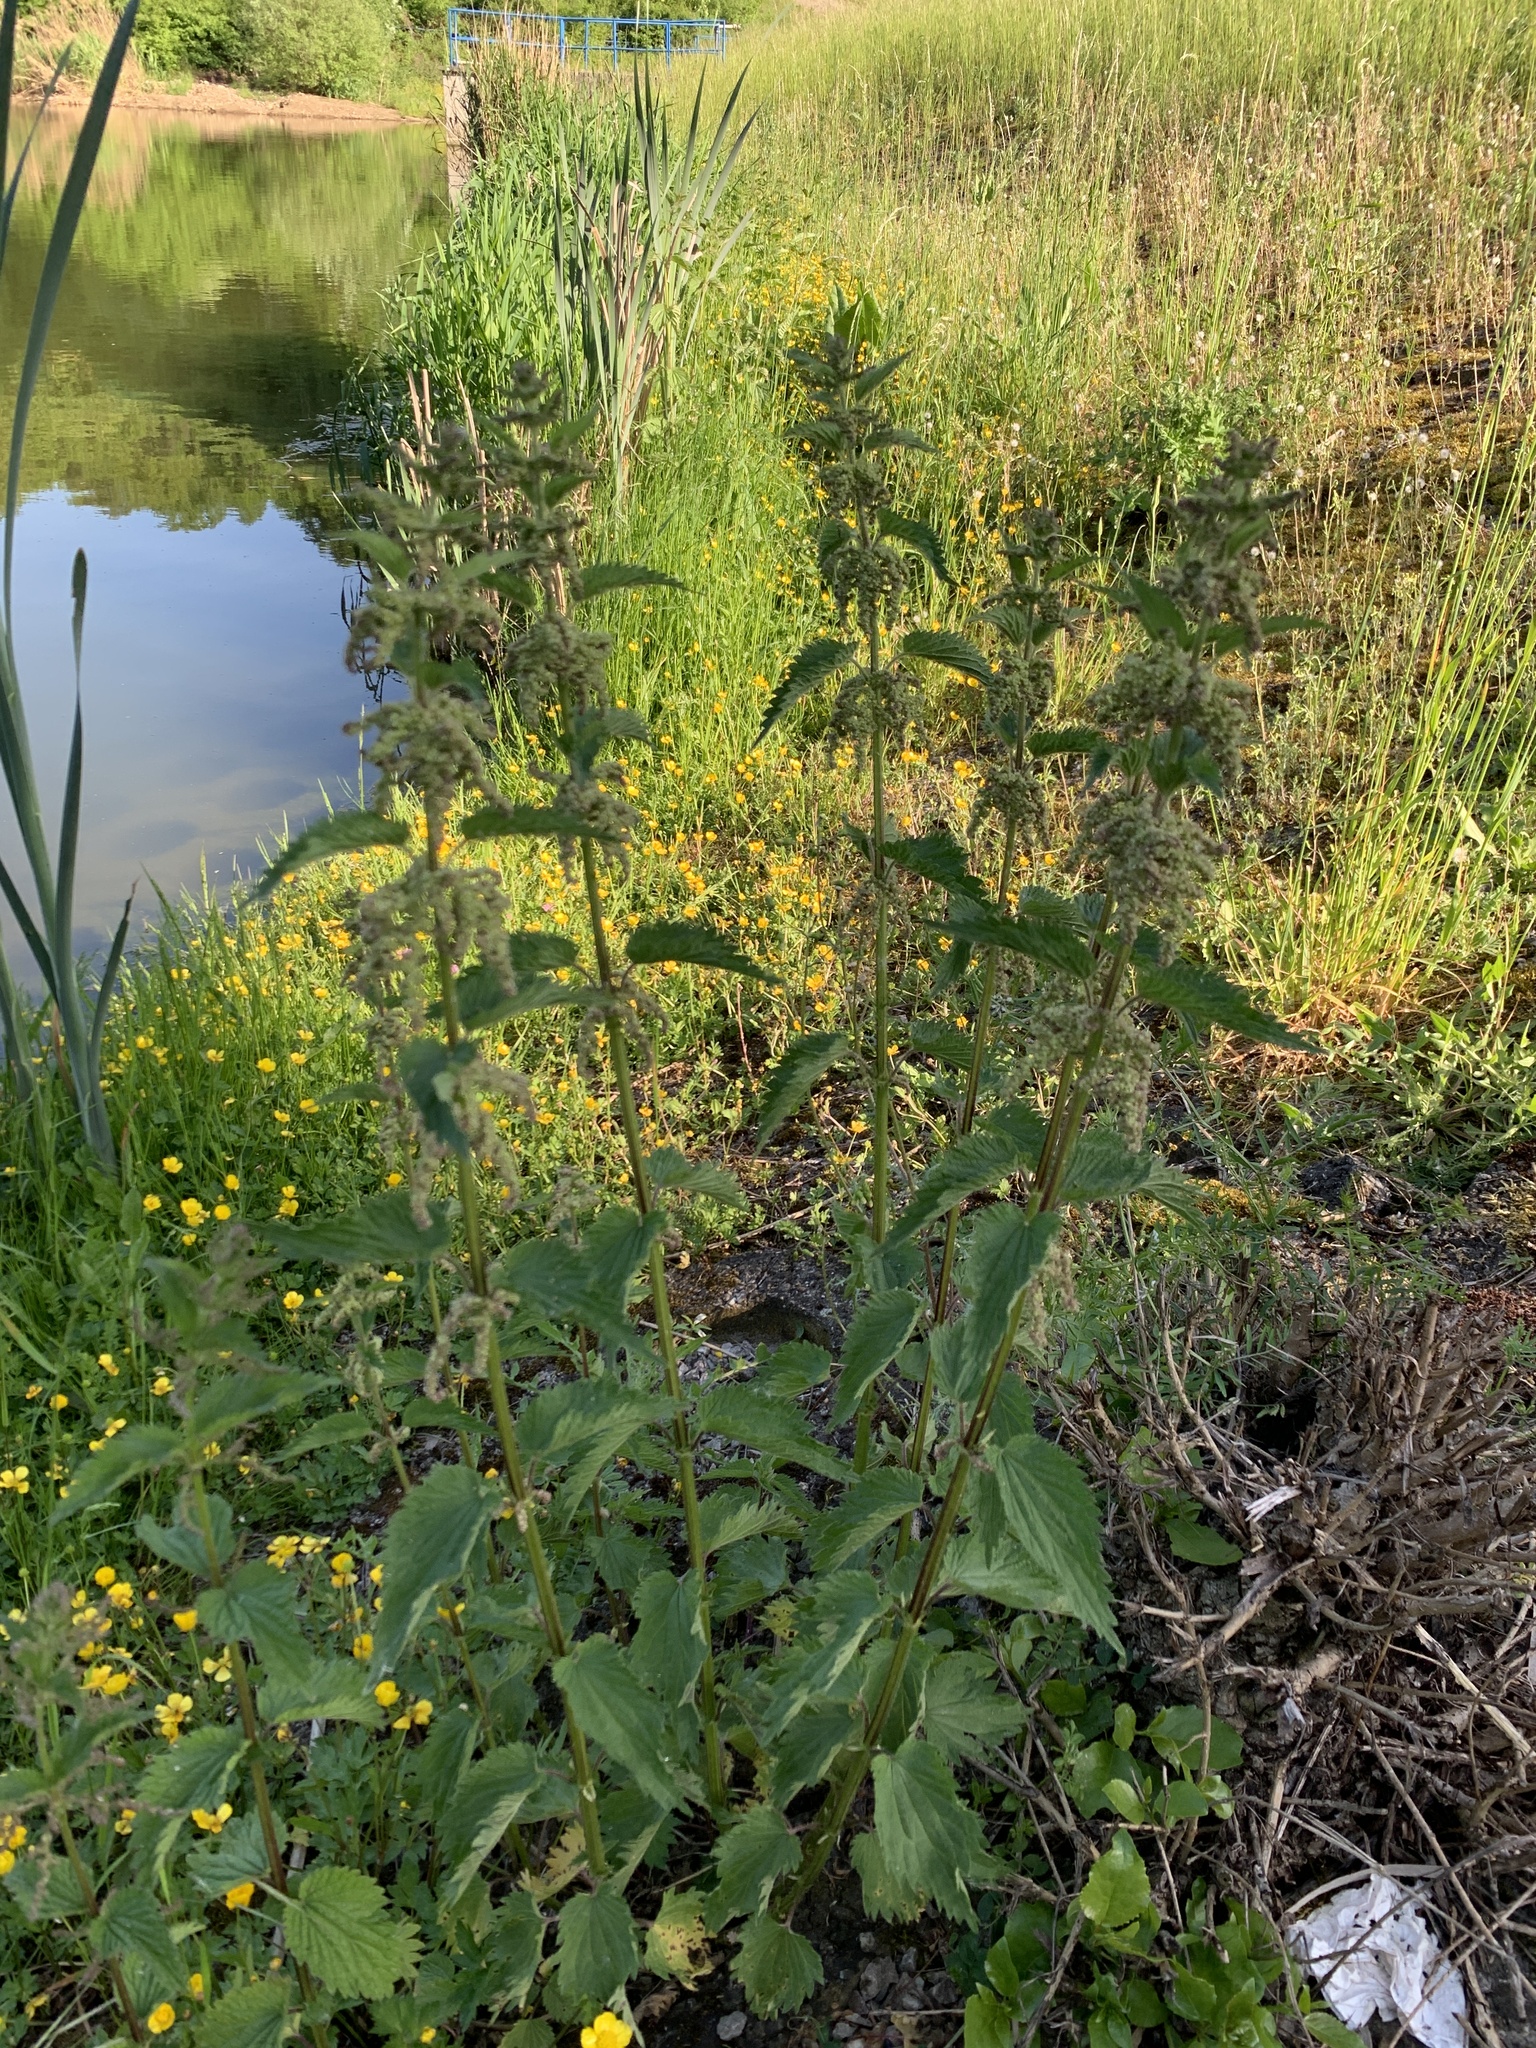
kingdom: Plantae
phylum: Tracheophyta
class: Magnoliopsida
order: Rosales
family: Urticaceae
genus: Urtica
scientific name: Urtica dioica
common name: Common nettle
